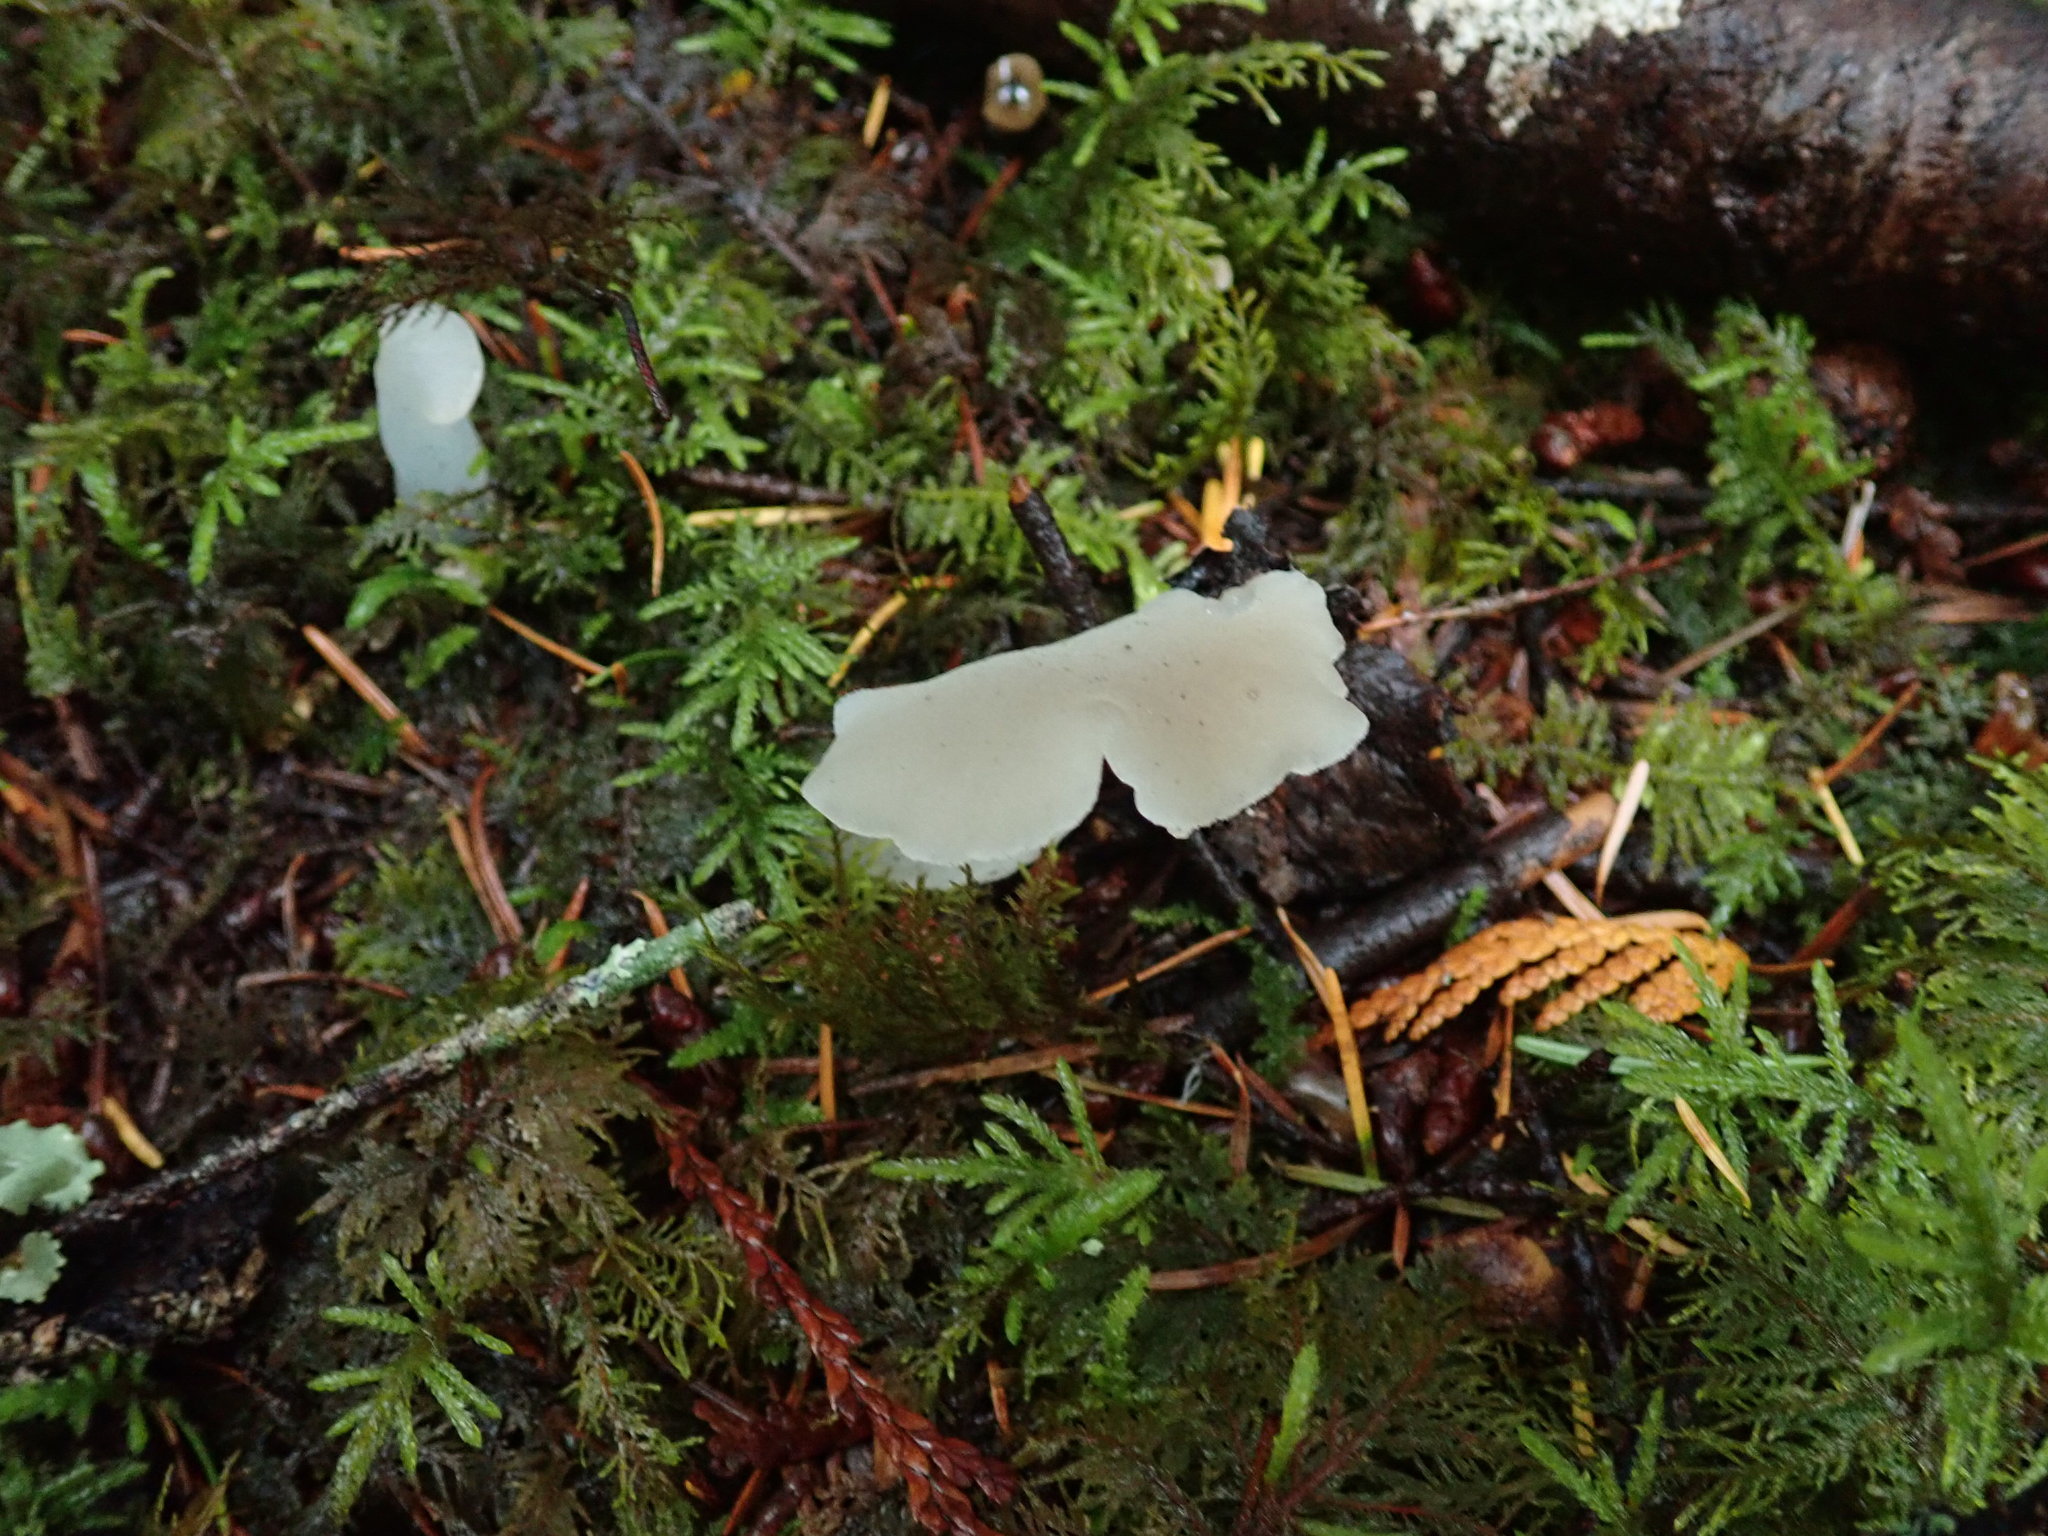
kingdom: Fungi
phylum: Basidiomycota
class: Agaricomycetes
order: Auriculariales
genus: Pseudohydnum
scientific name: Pseudohydnum gelatinosum
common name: Jelly tongue
